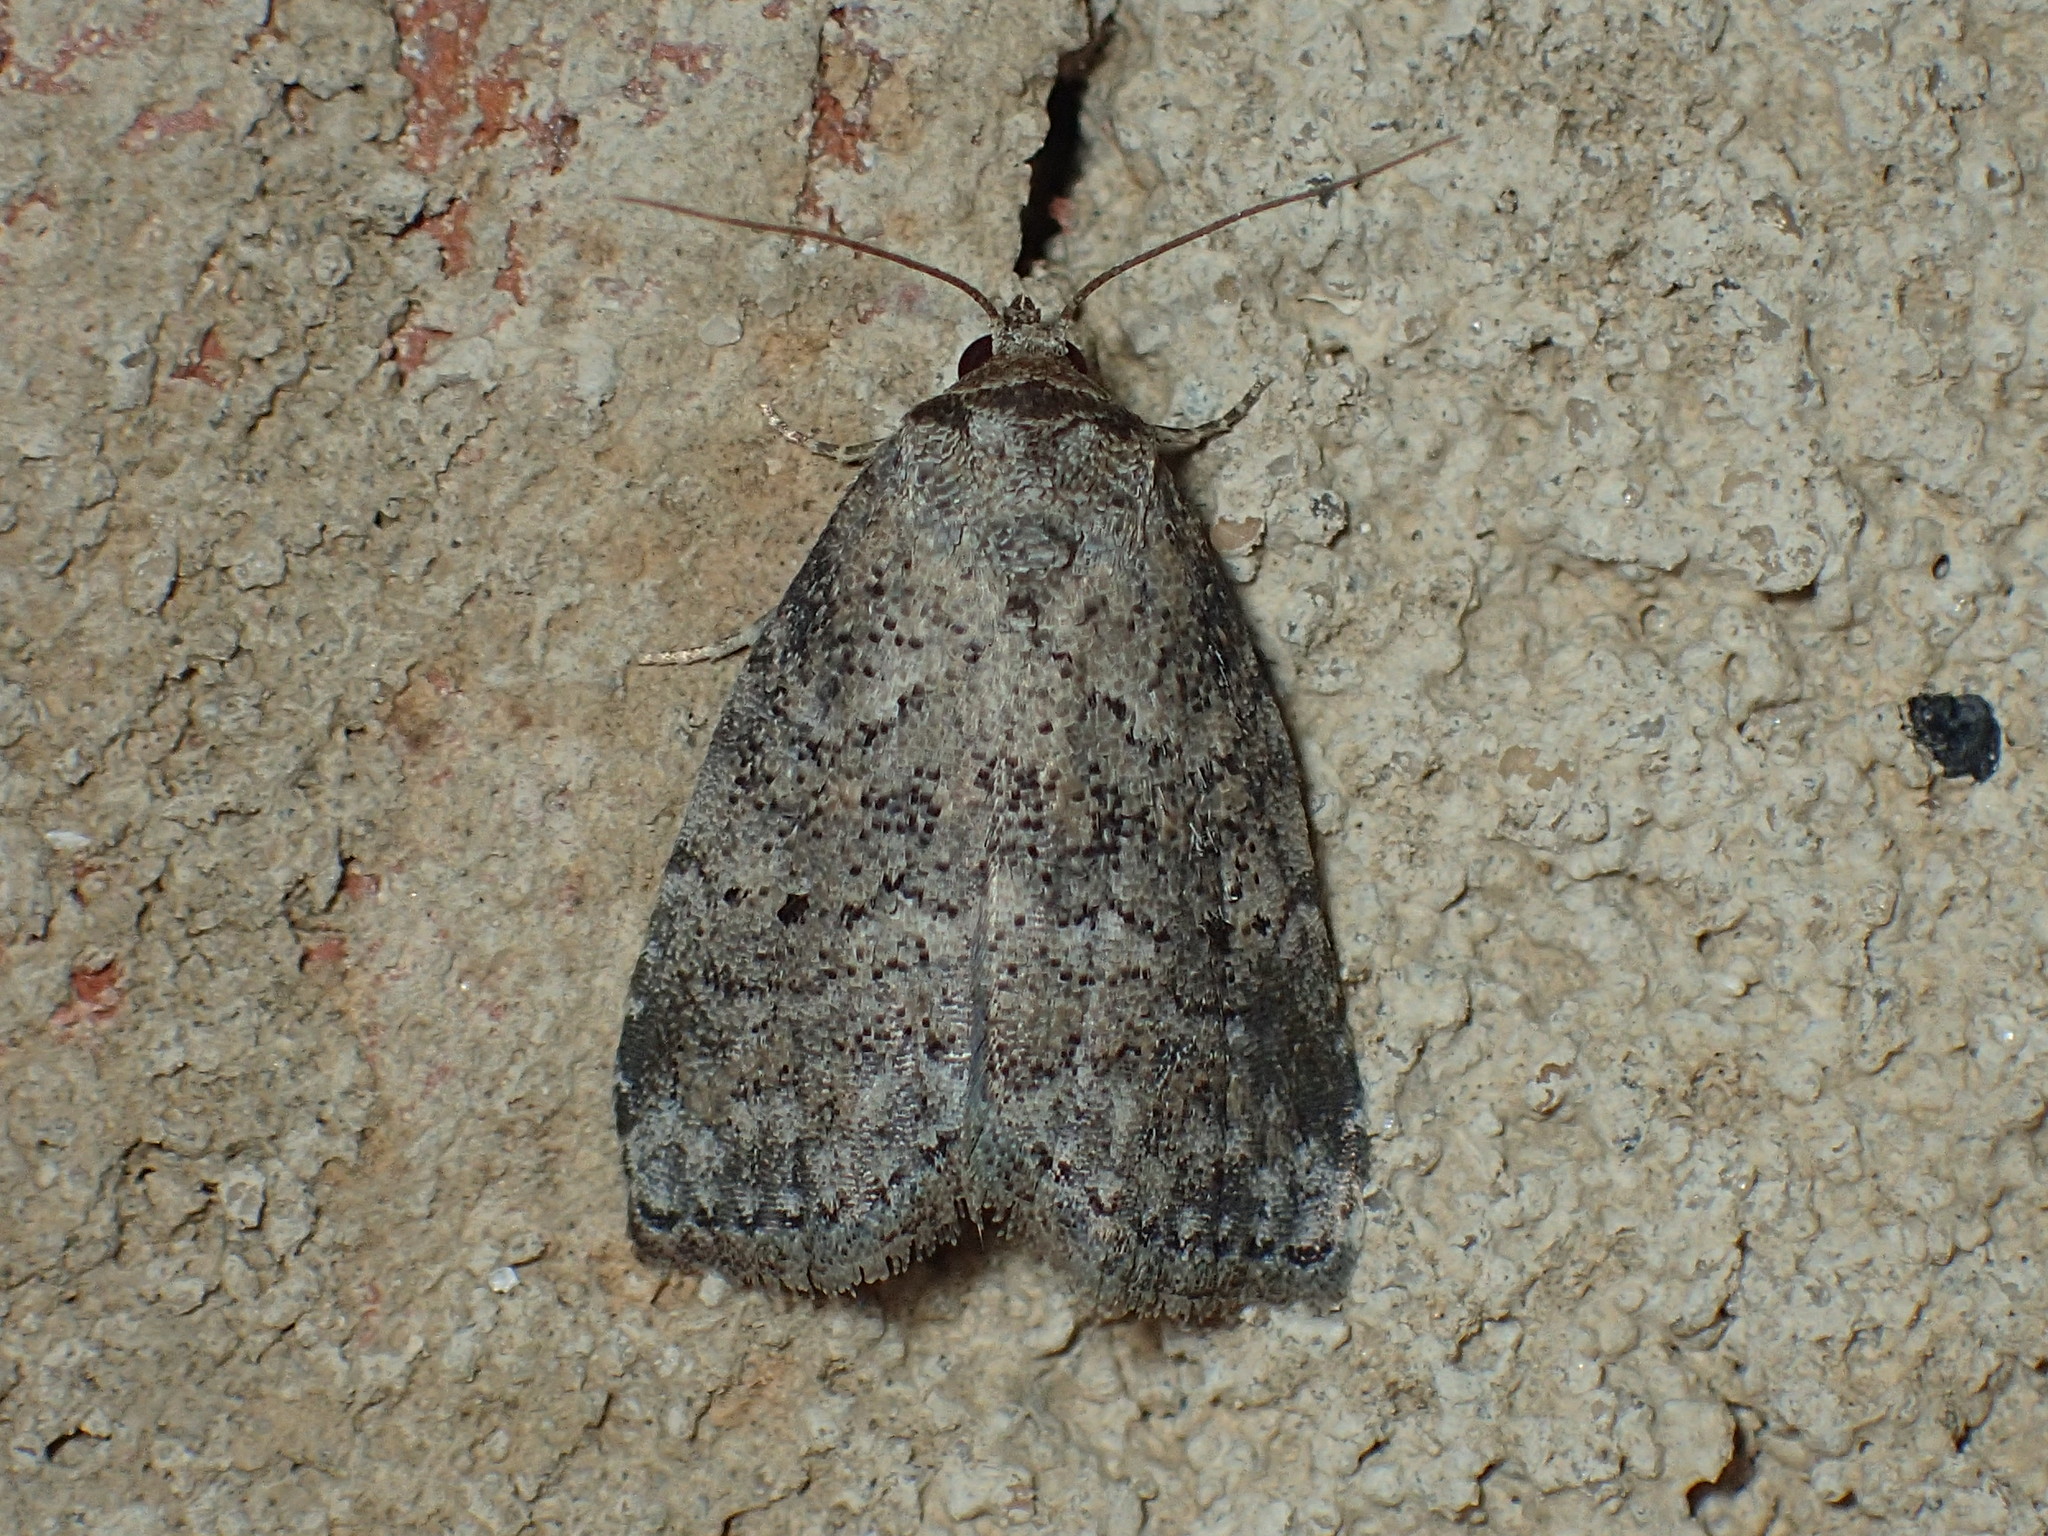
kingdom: Animalia
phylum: Arthropoda
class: Insecta
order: Lepidoptera
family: Erebidae
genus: Hyperstrotia
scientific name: Hyperstrotia pervertens
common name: Dotted graylet
